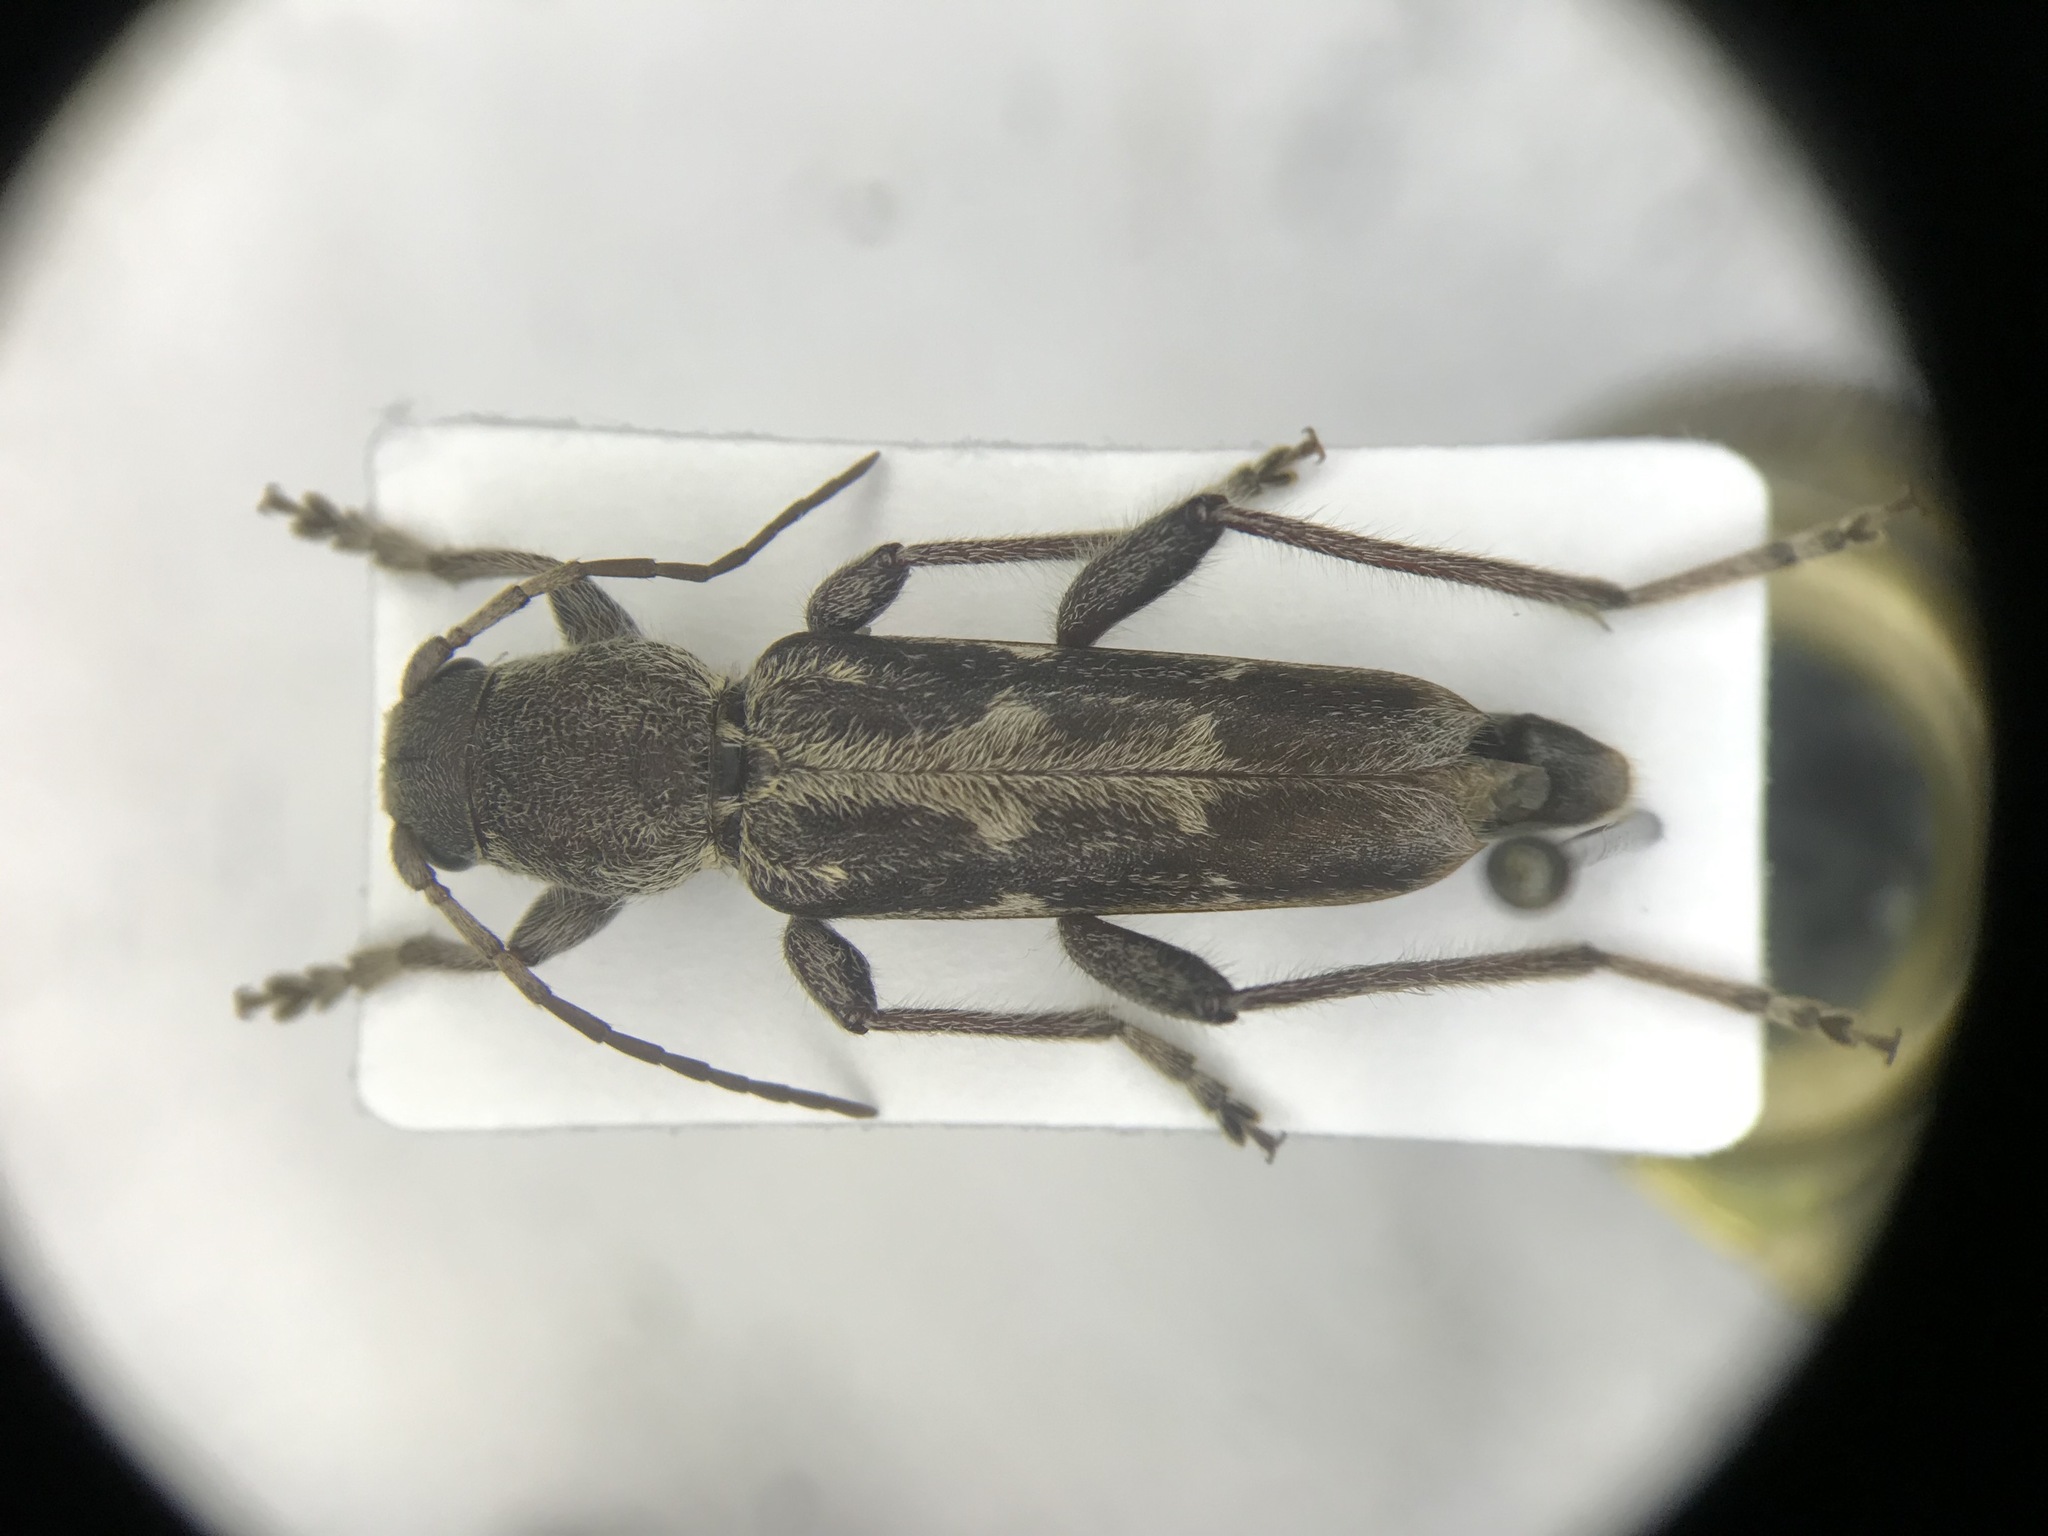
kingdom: Animalia
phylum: Arthropoda
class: Insecta
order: Coleoptera
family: Cerambycidae
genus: Xylotrechus
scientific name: Xylotrechus sagittatus
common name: Arrowhead borer
